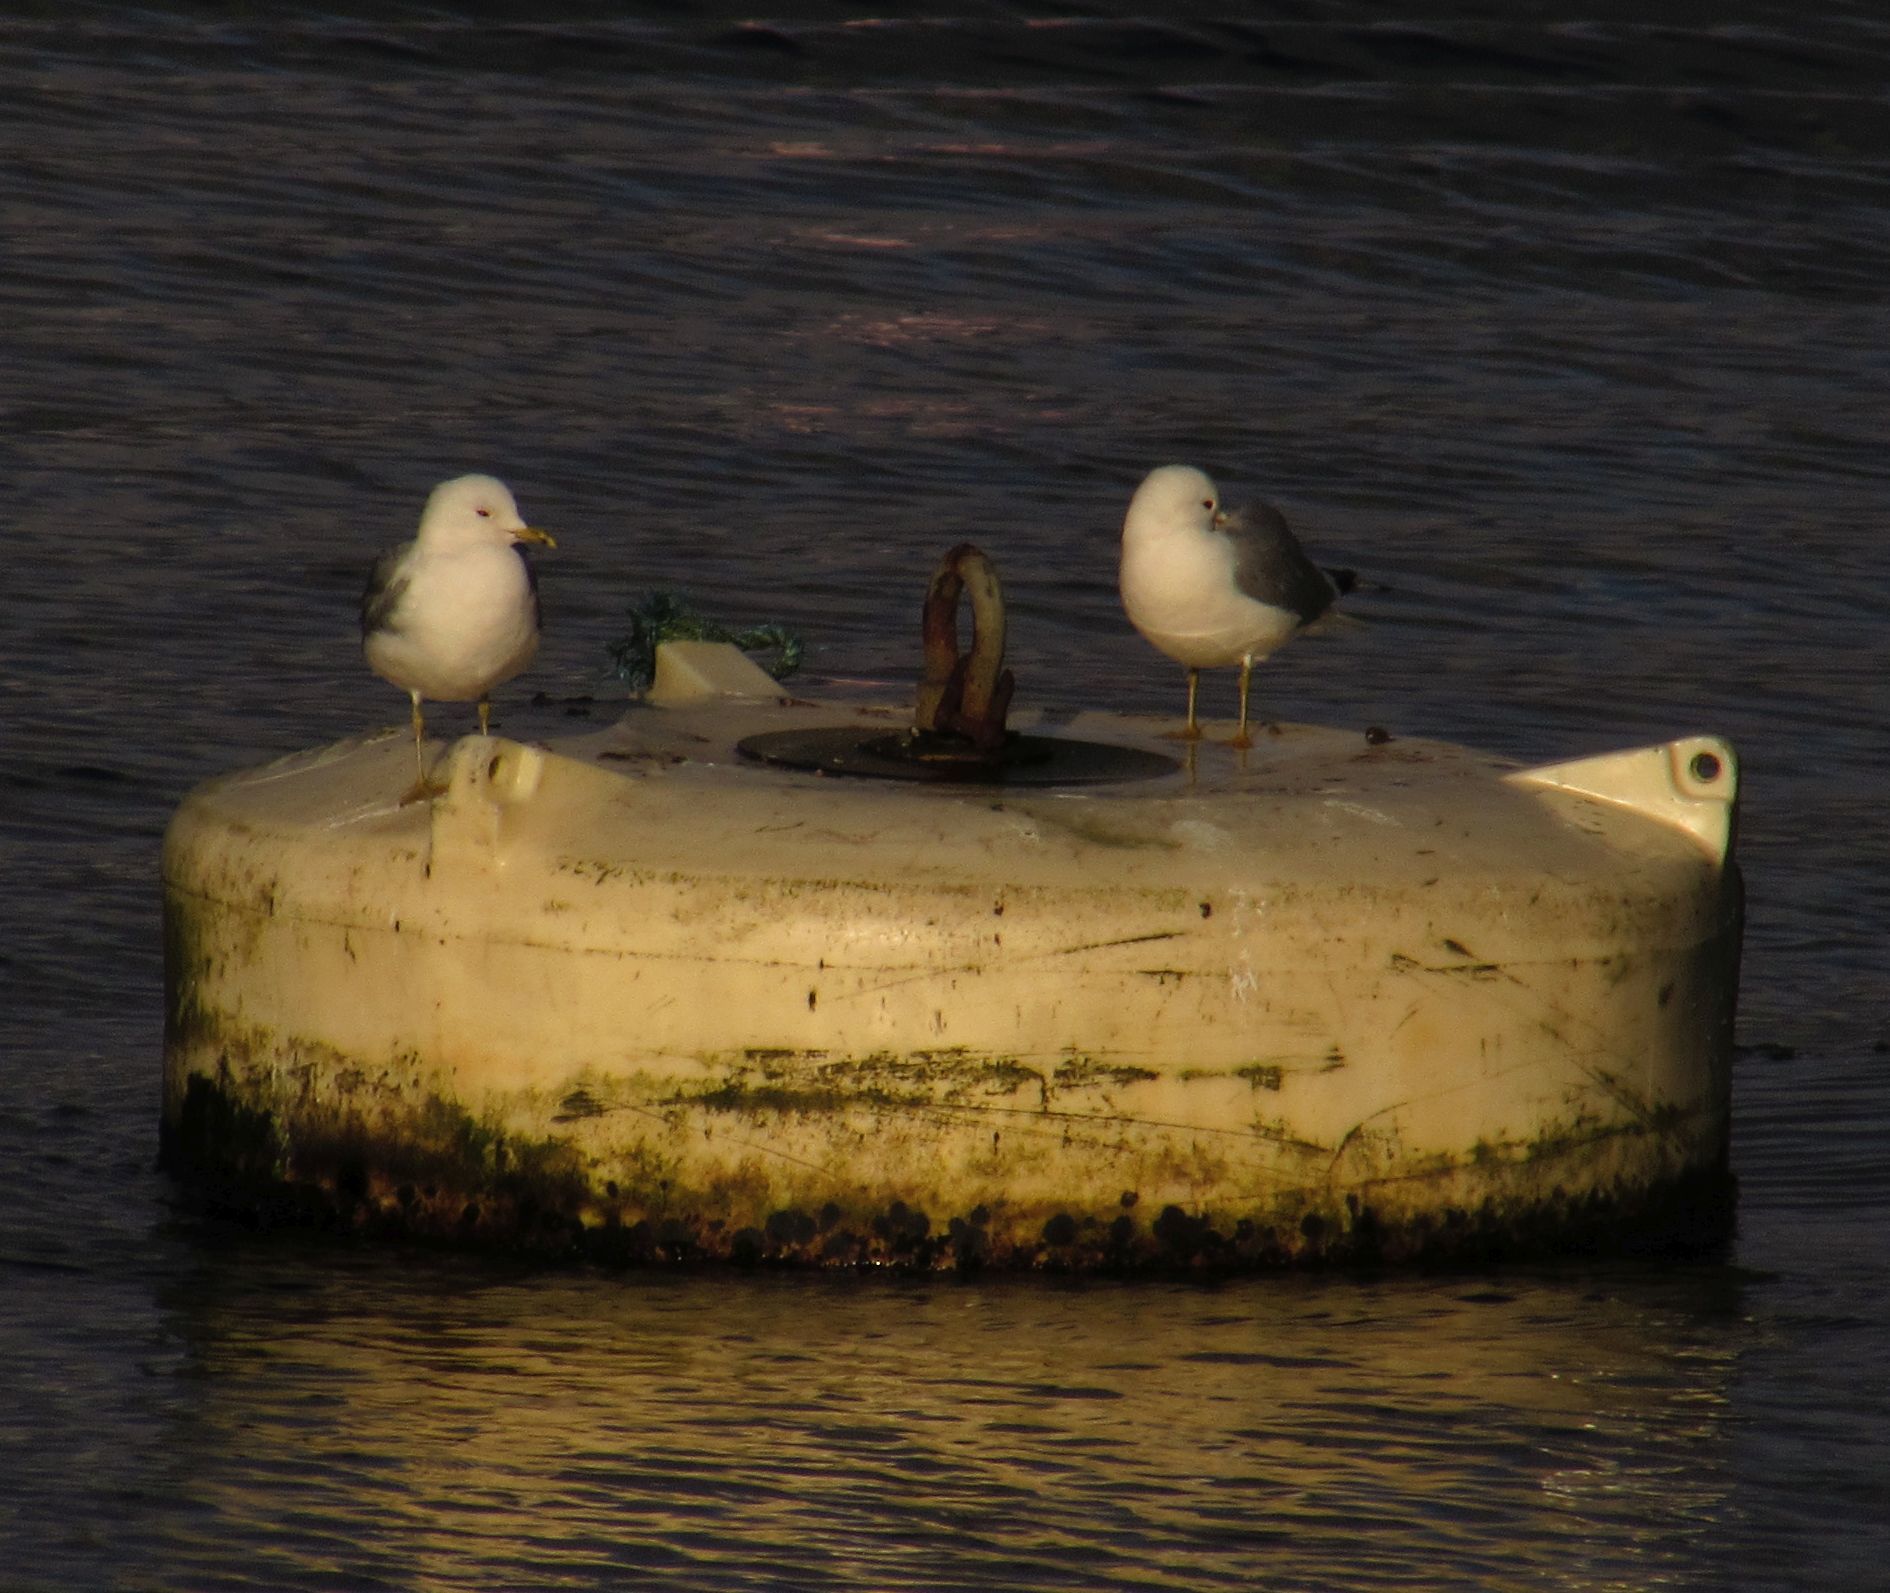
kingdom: Animalia
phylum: Chordata
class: Aves
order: Charadriiformes
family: Laridae
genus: Larus
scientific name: Larus canus
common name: Mew gull
